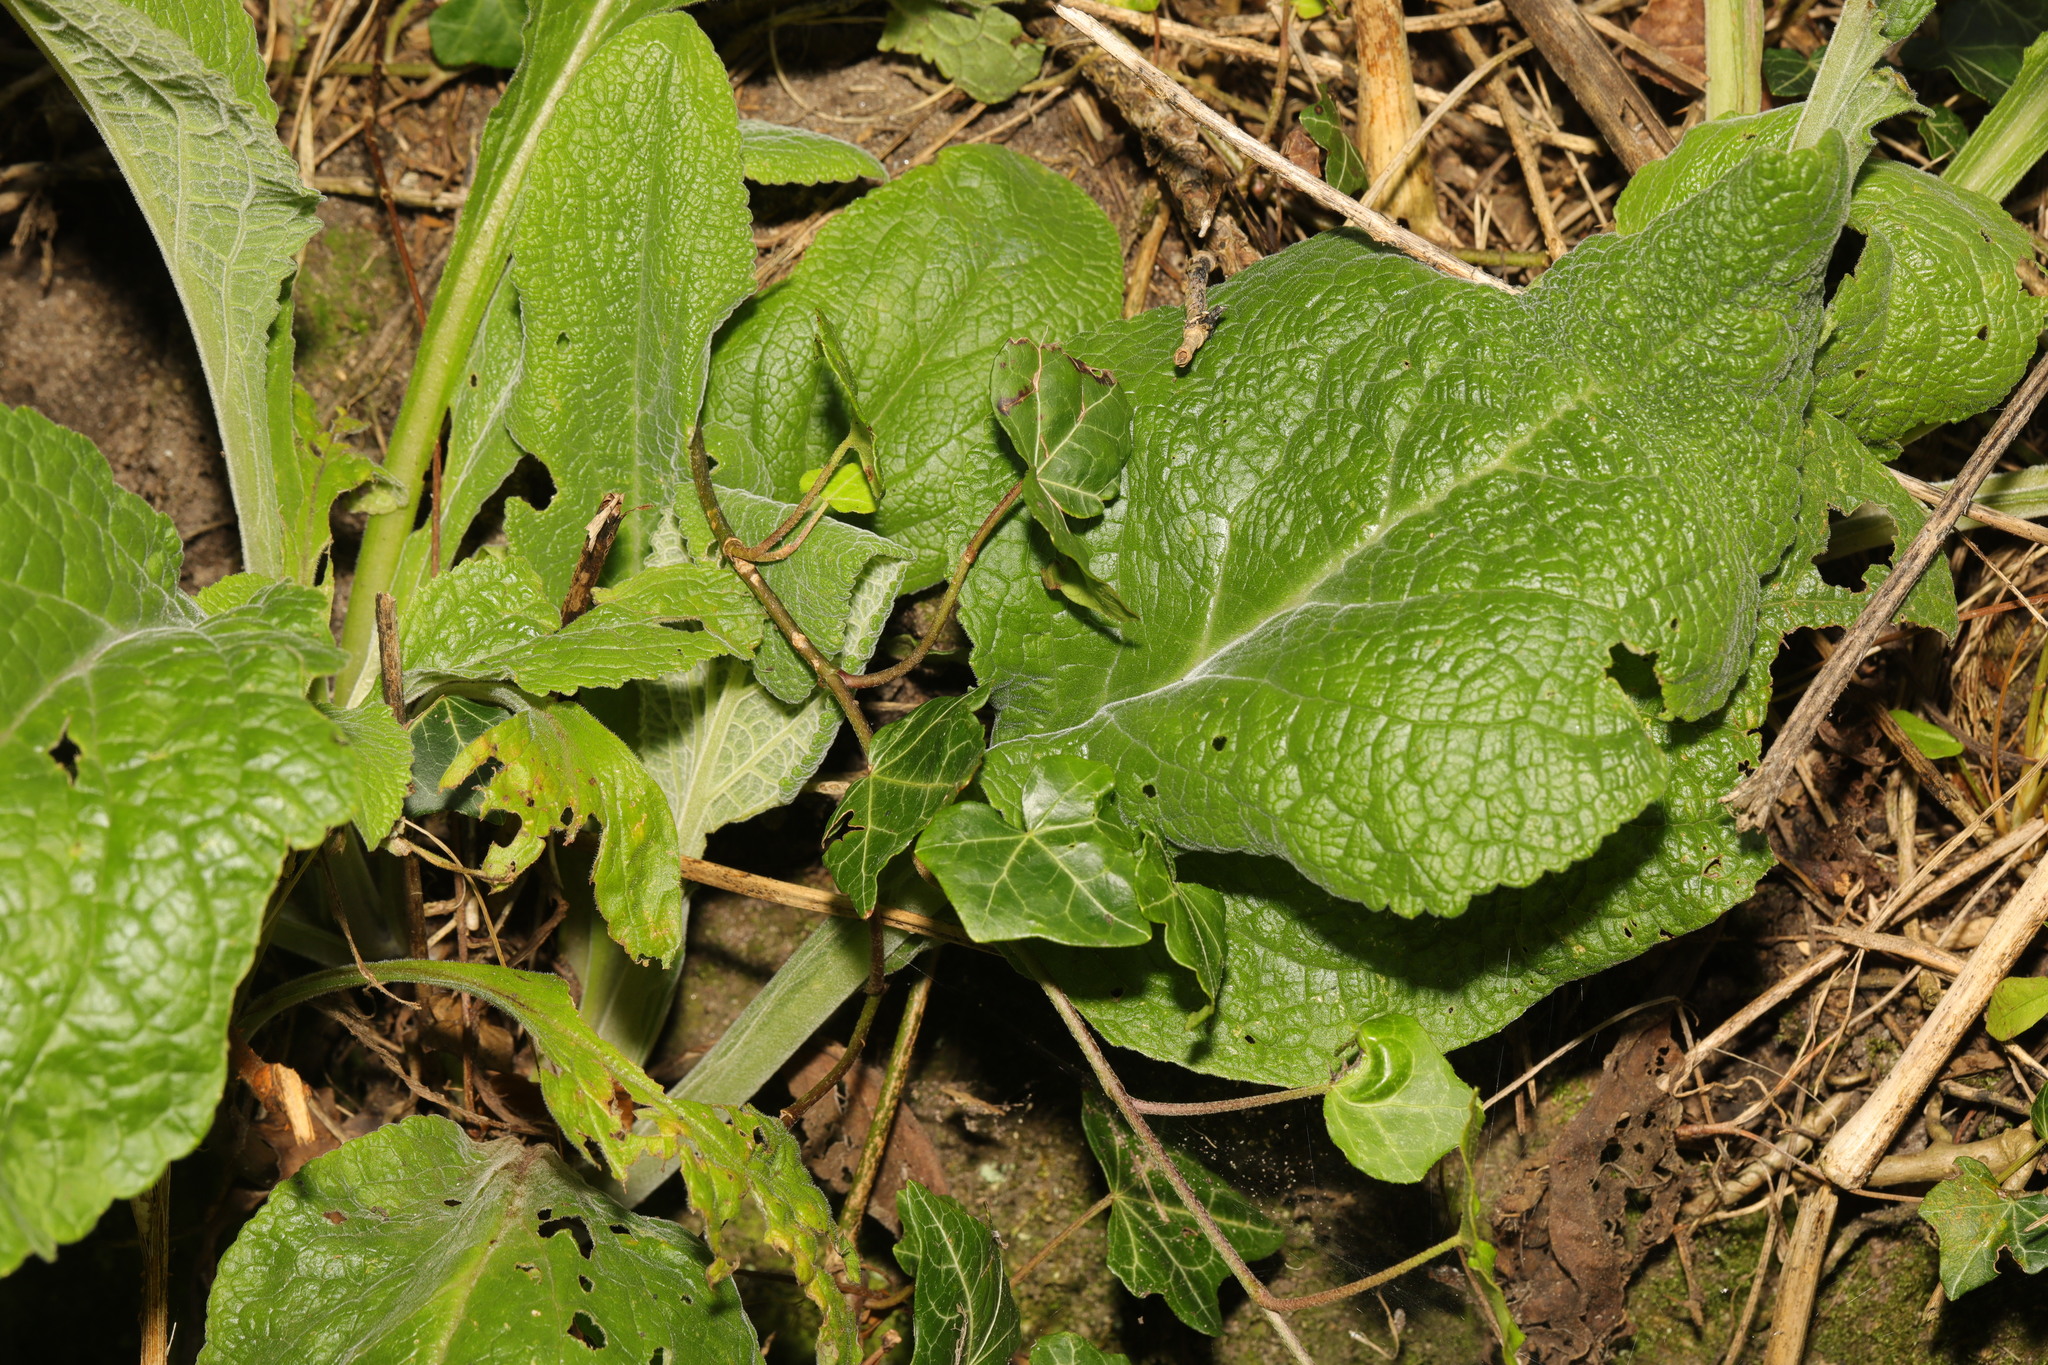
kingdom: Plantae
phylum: Tracheophyta
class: Magnoliopsida
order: Lamiales
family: Plantaginaceae
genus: Digitalis
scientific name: Digitalis purpurea
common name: Foxglove
